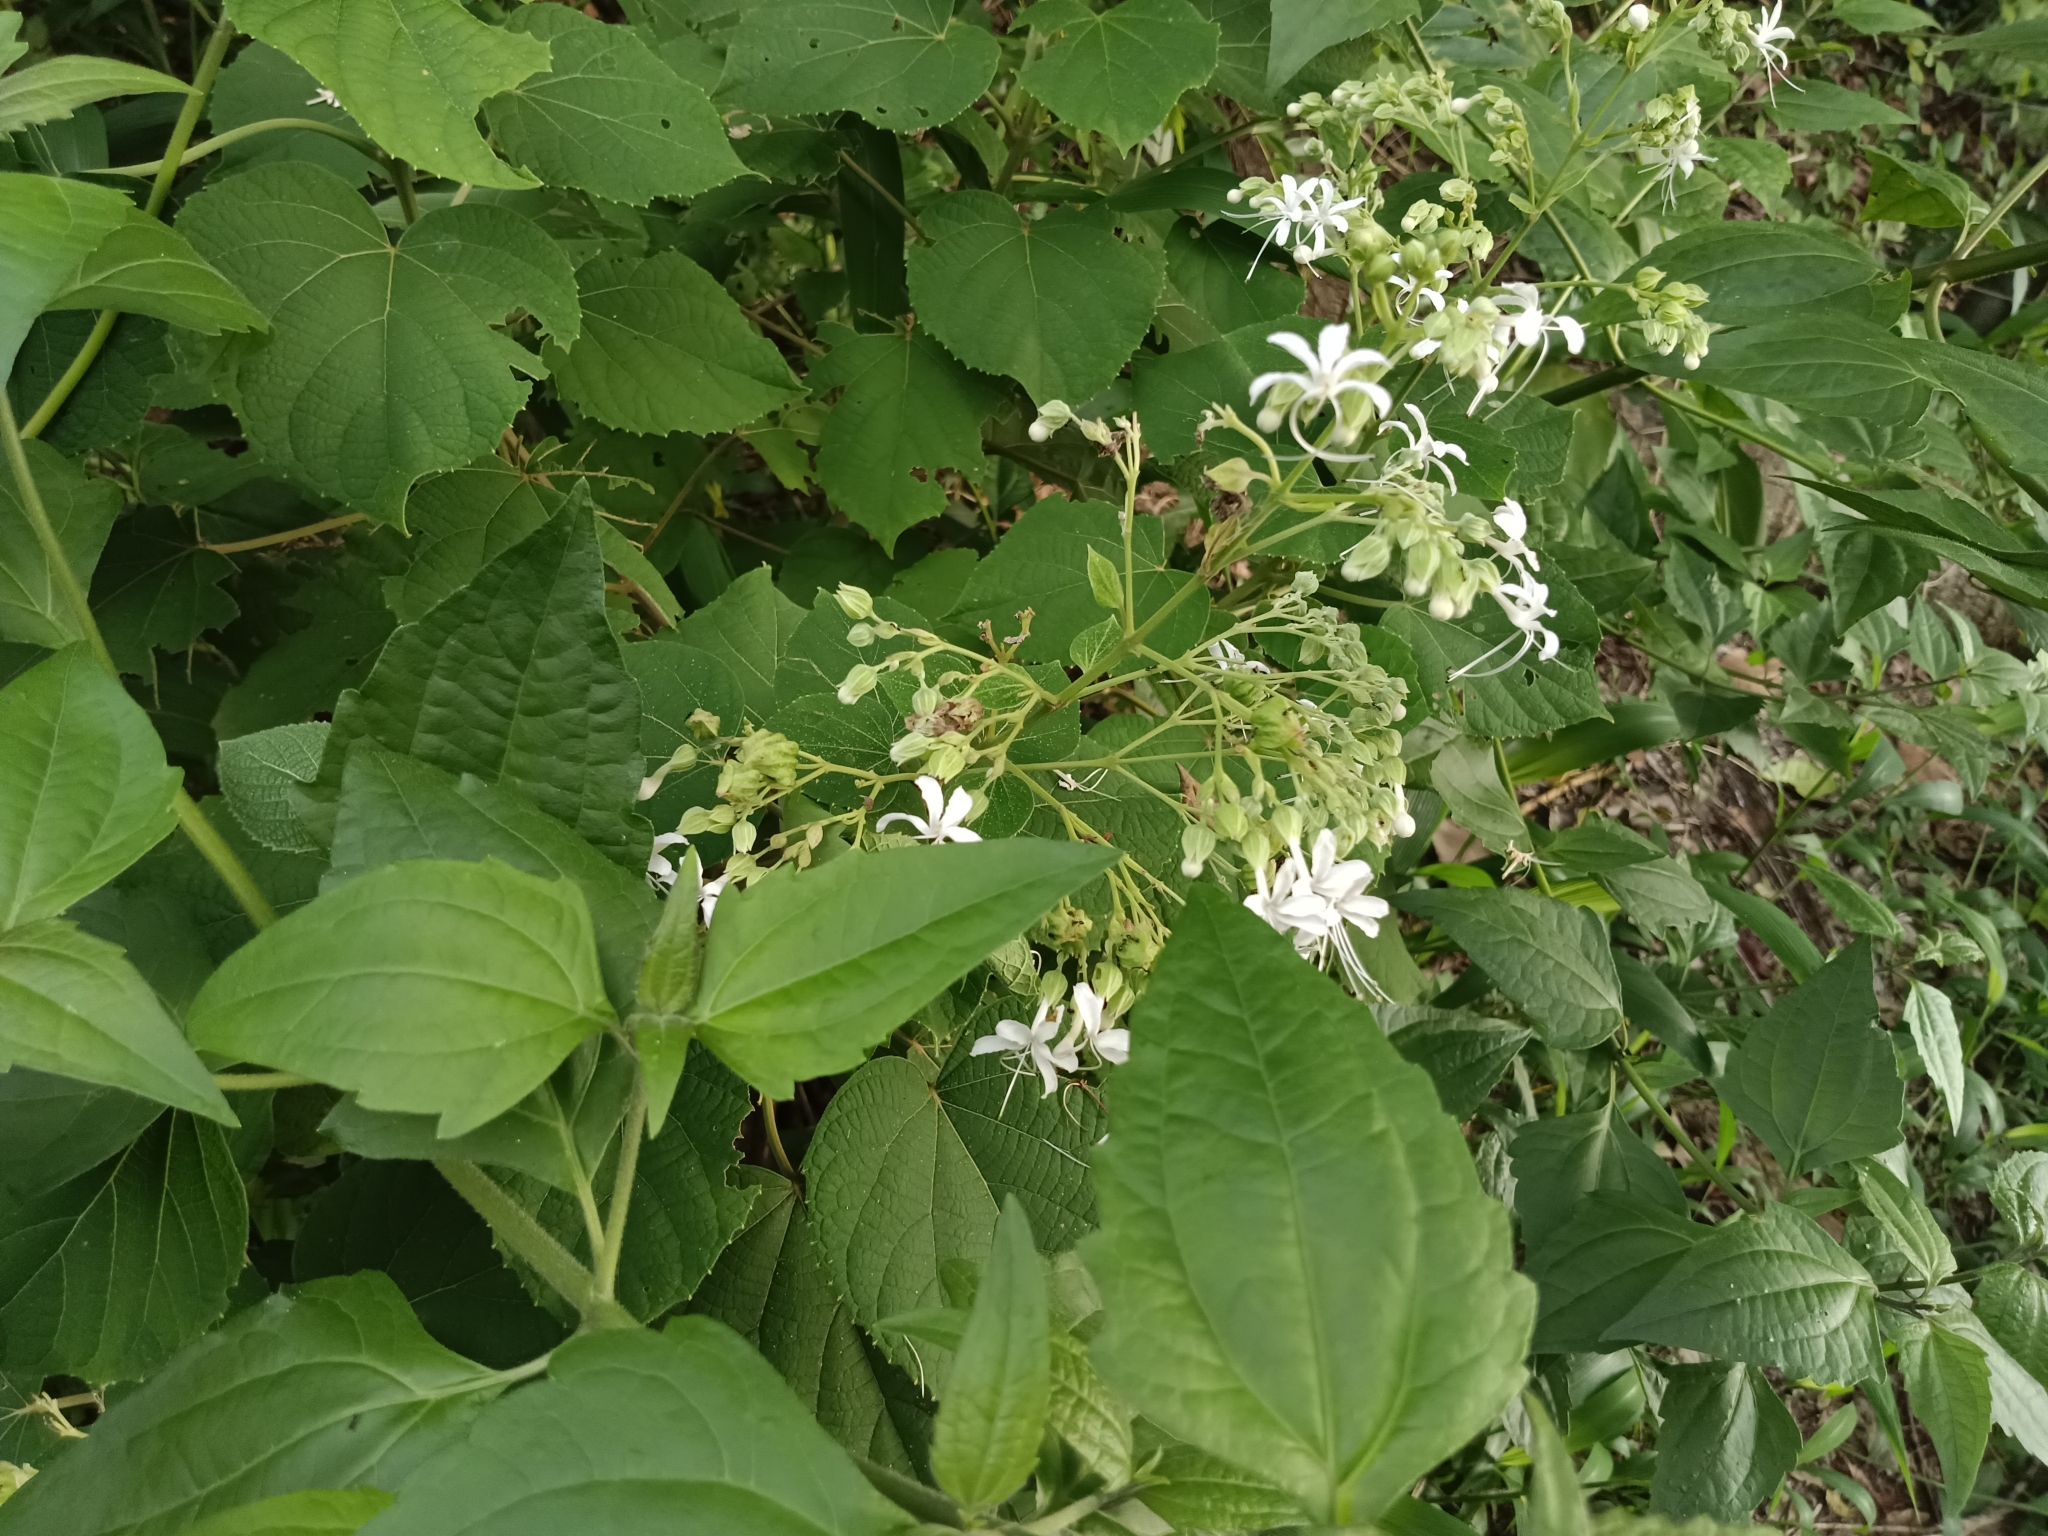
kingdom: Plantae
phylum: Tracheophyta
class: Magnoliopsida
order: Lamiales
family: Lamiaceae
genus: Clerodendrum
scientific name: Clerodendrum infortunatum
